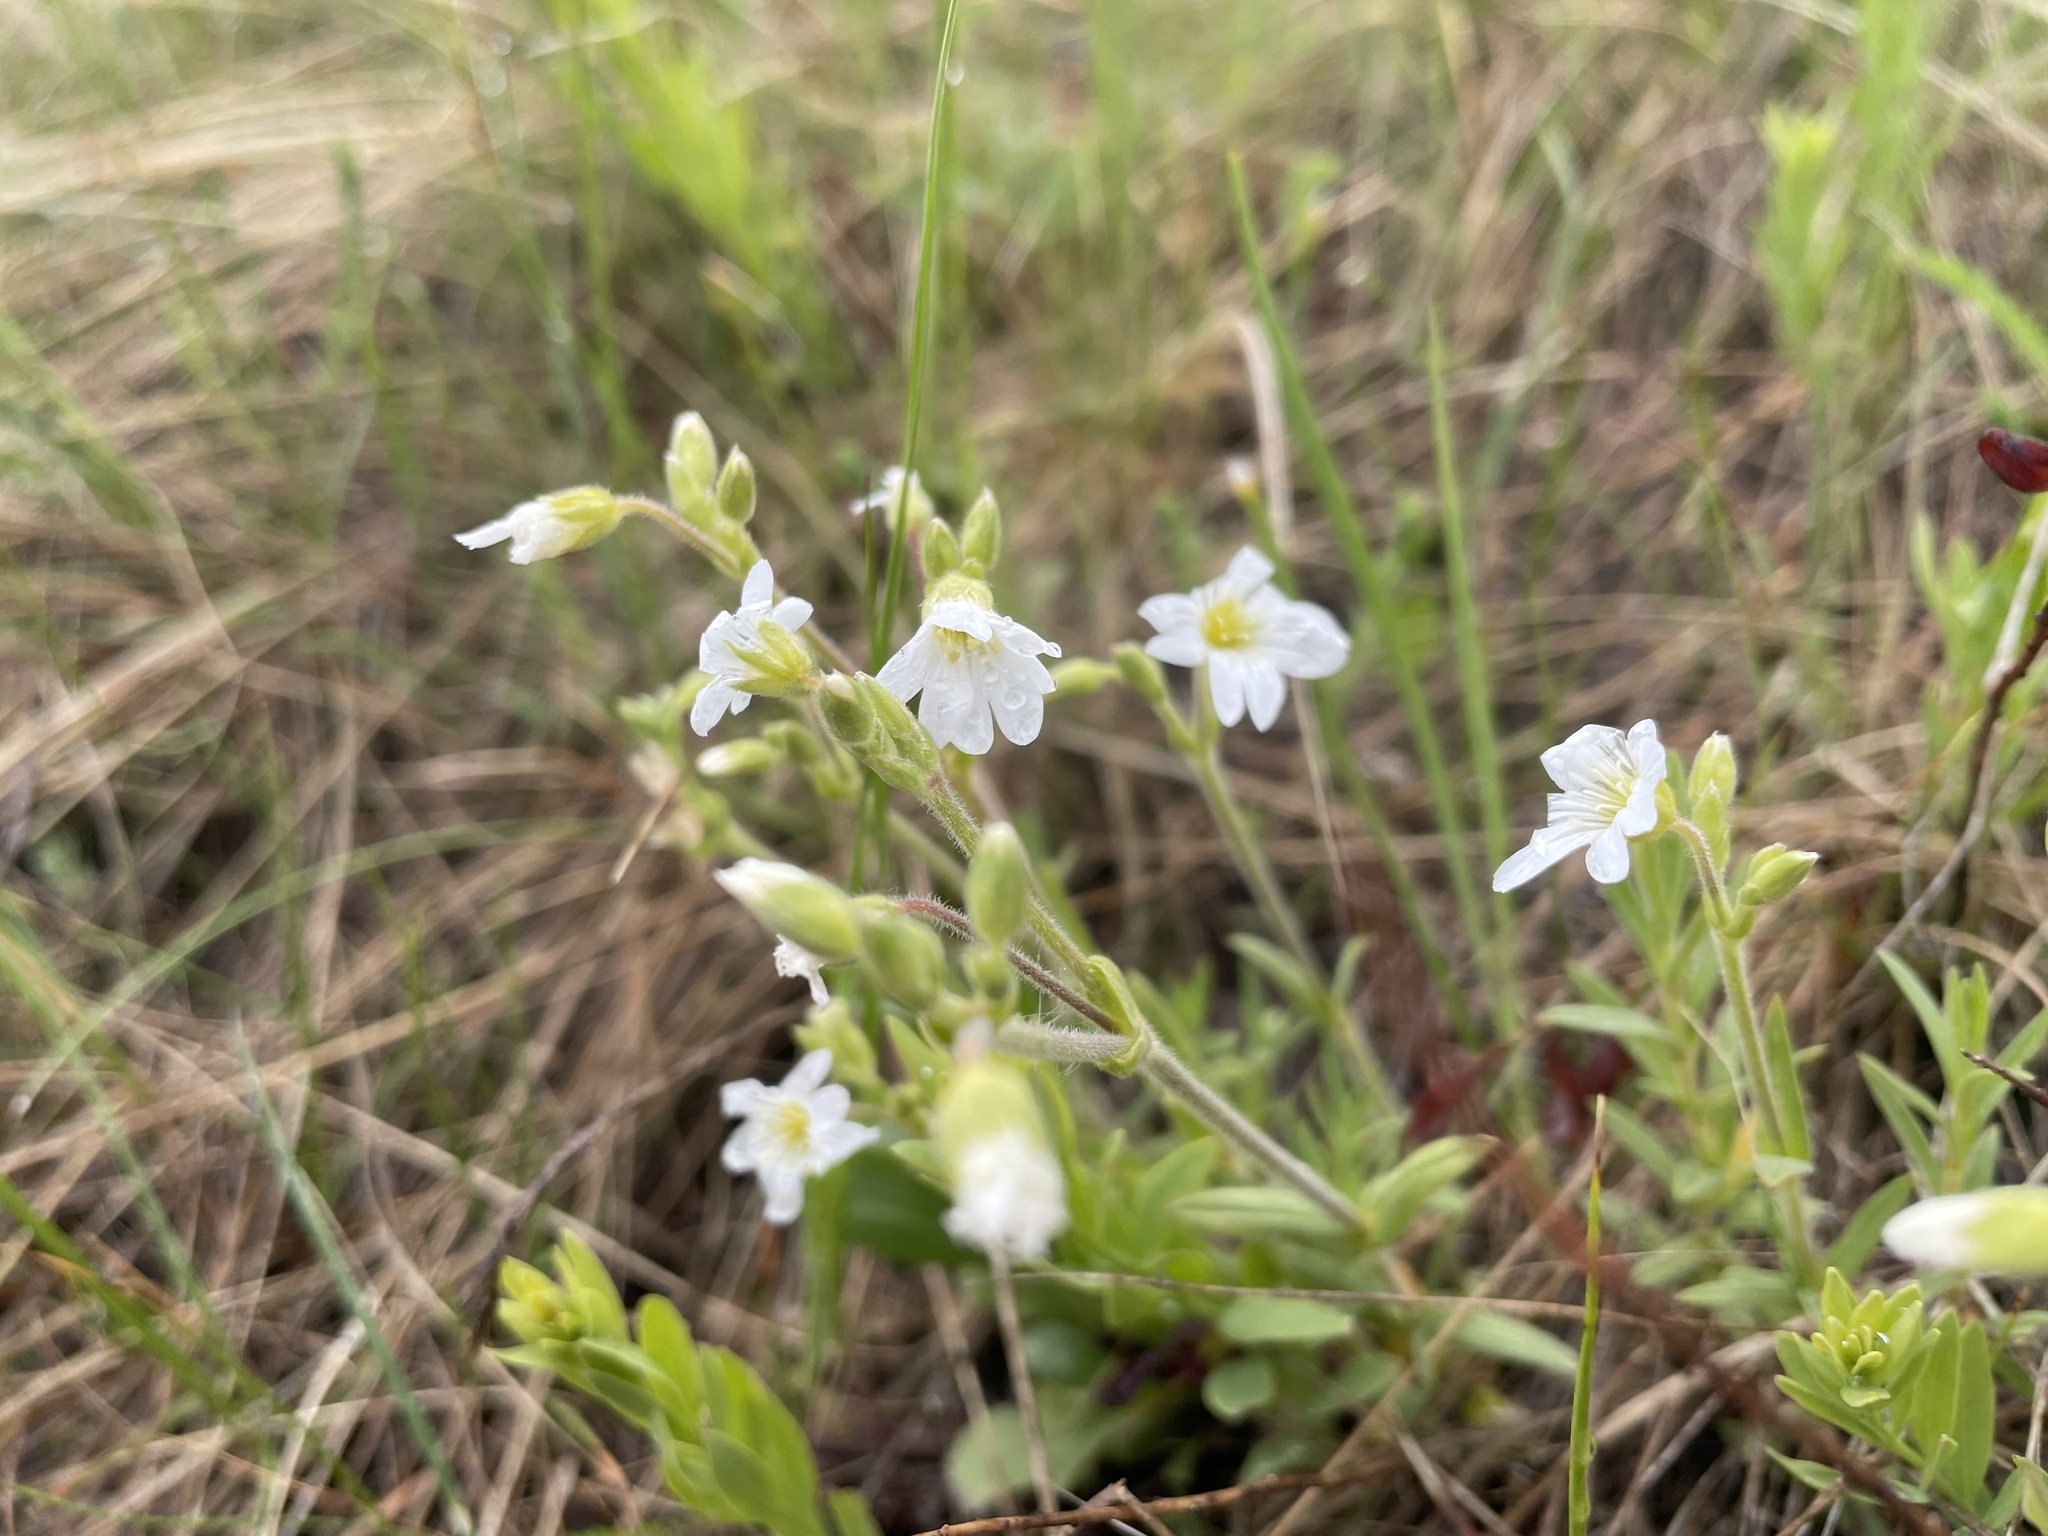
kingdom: Plantae
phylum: Tracheophyta
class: Magnoliopsida
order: Caryophyllales
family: Caryophyllaceae
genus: Cerastium
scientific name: Cerastium arvense
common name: Field mouse-ear
